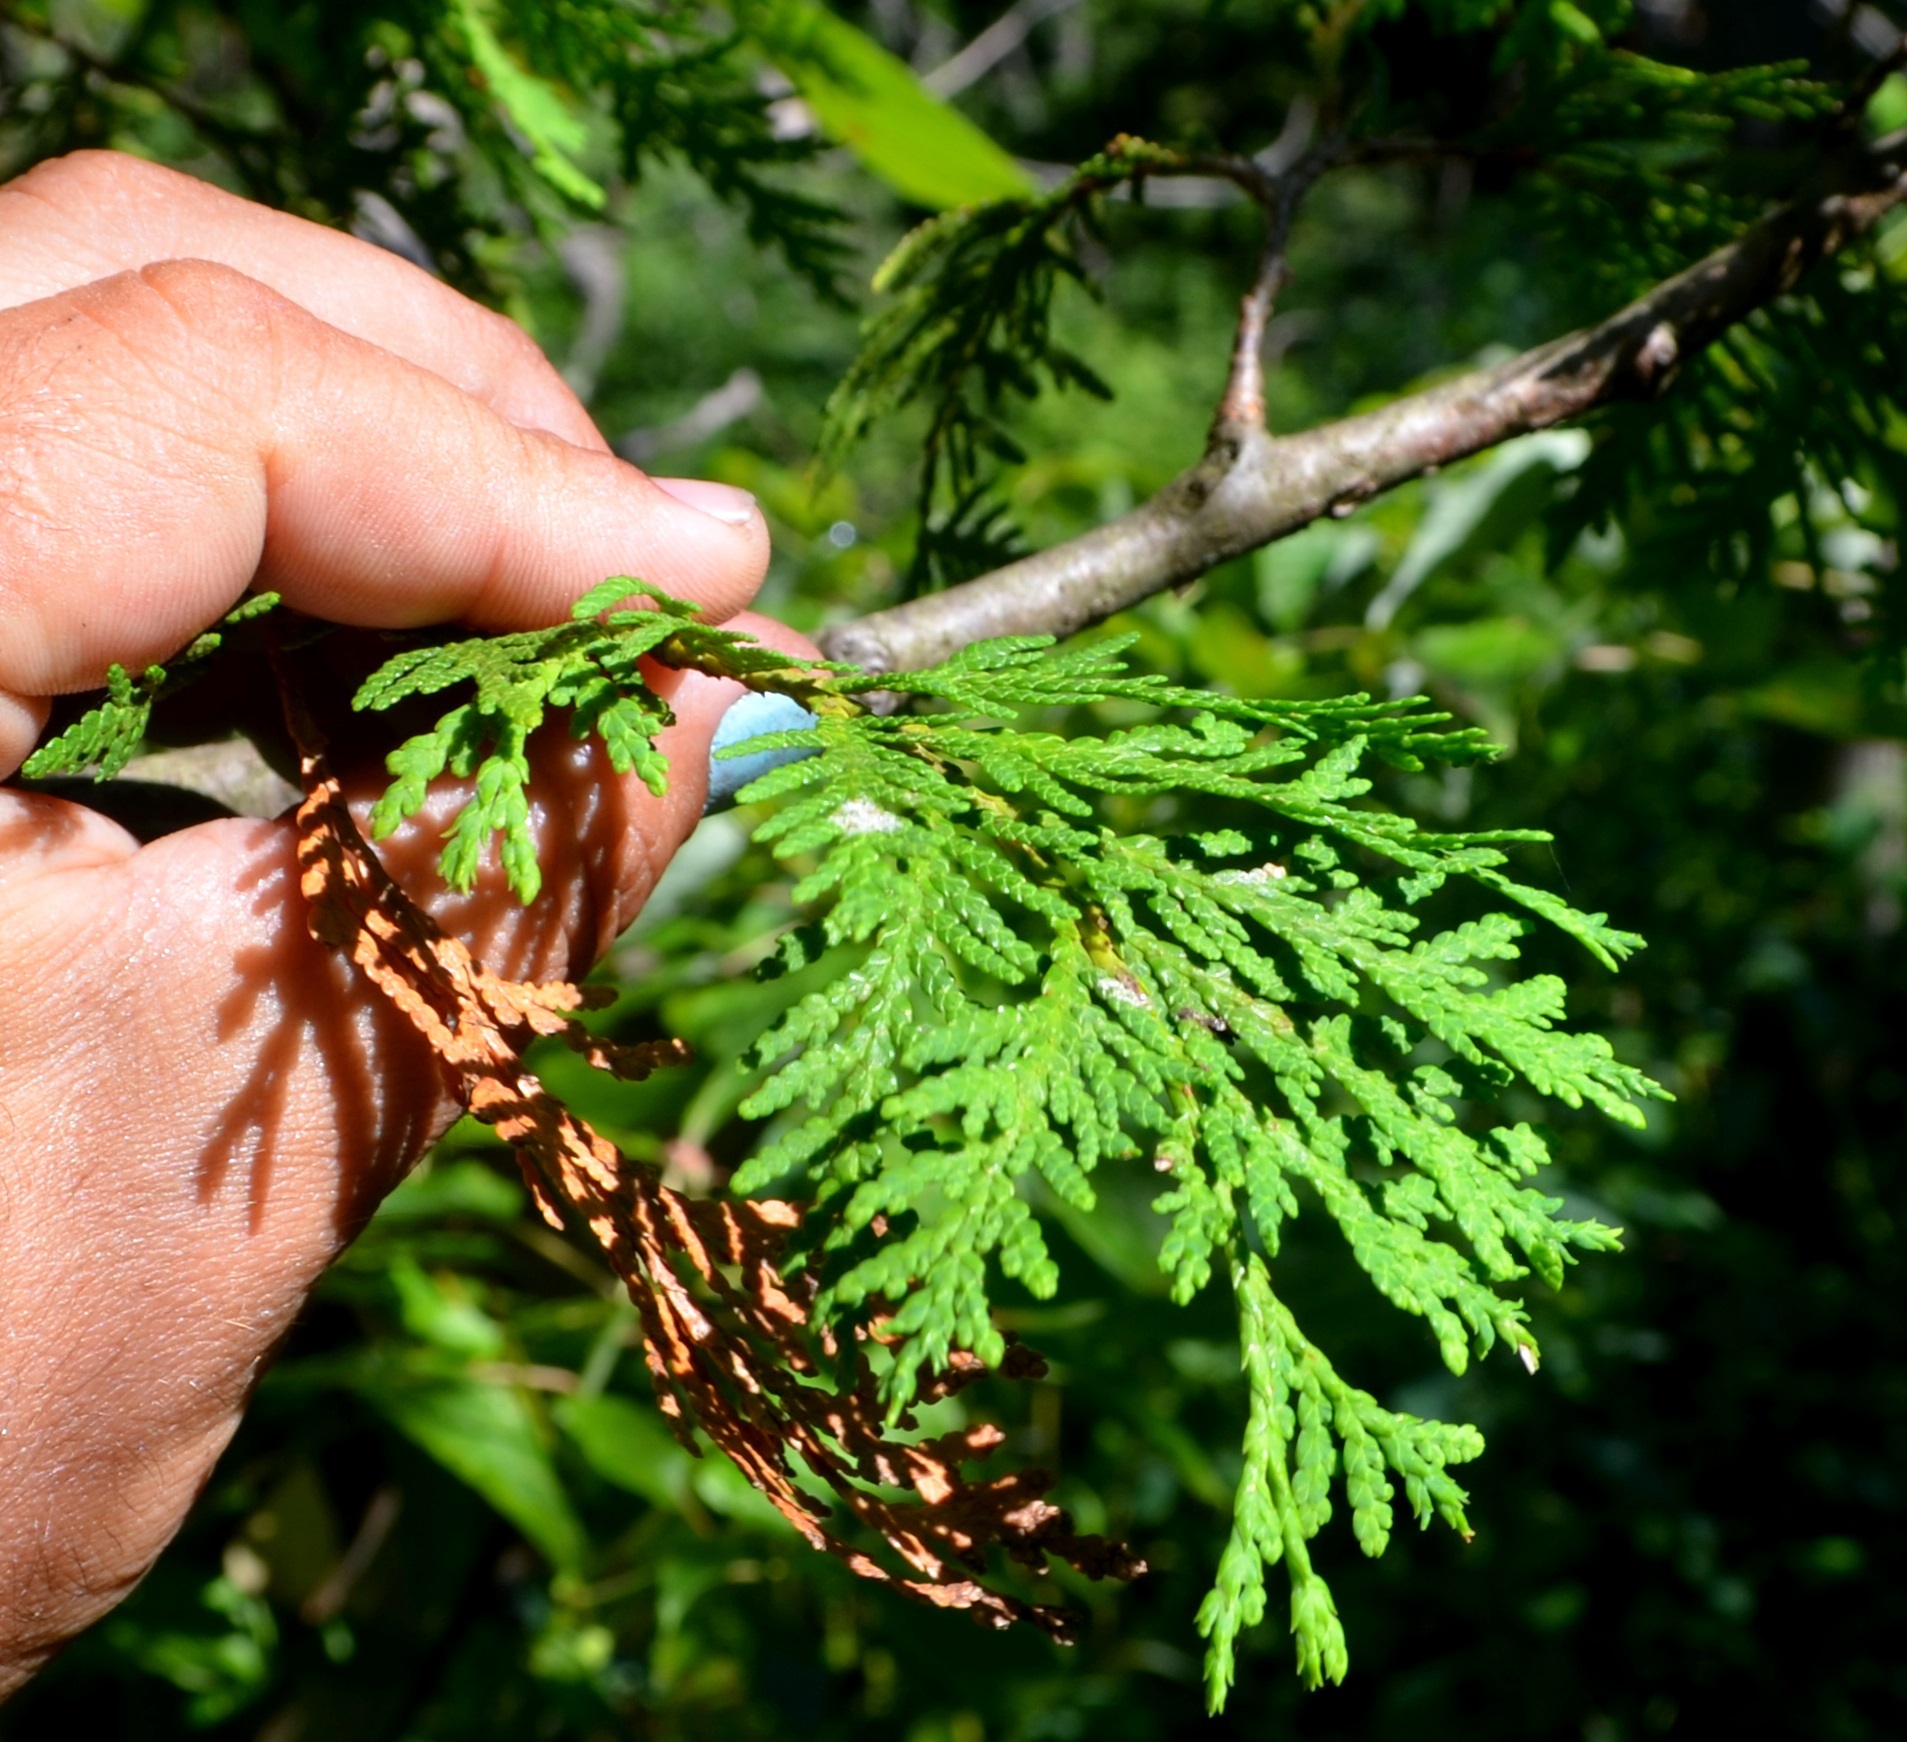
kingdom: Plantae
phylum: Tracheophyta
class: Pinopsida
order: Pinales
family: Cupressaceae
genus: Thuja
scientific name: Thuja occidentalis
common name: Northern white-cedar
